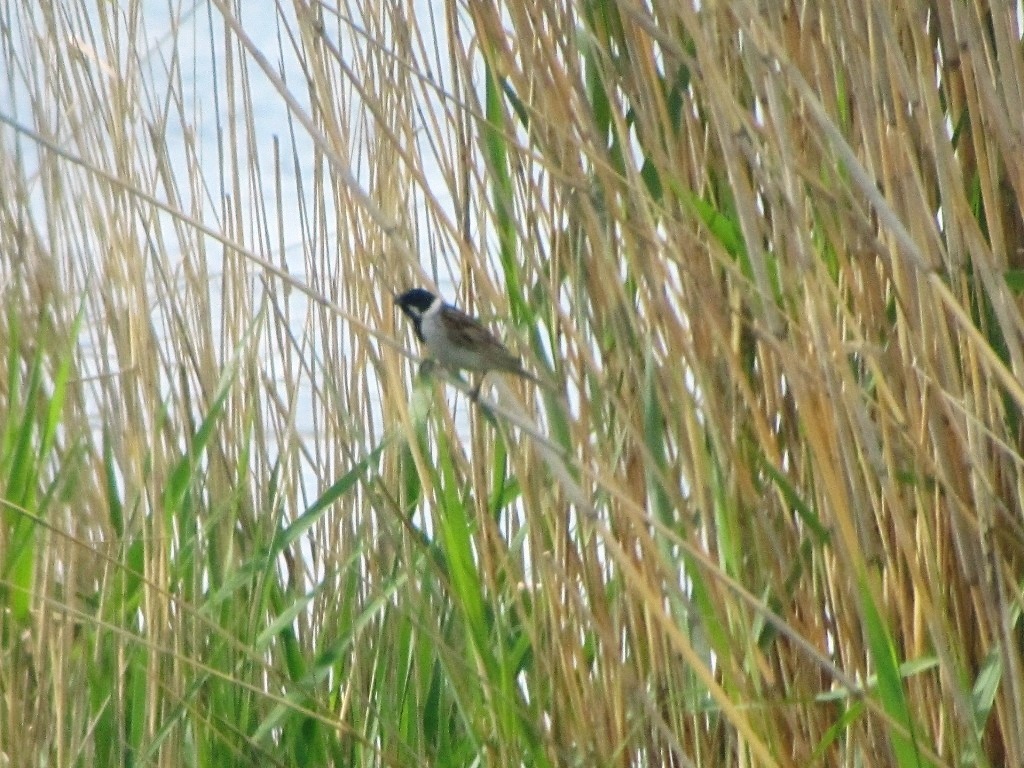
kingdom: Animalia
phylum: Chordata
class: Aves
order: Passeriformes
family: Emberizidae
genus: Emberiza
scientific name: Emberiza schoeniclus
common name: Reed bunting
